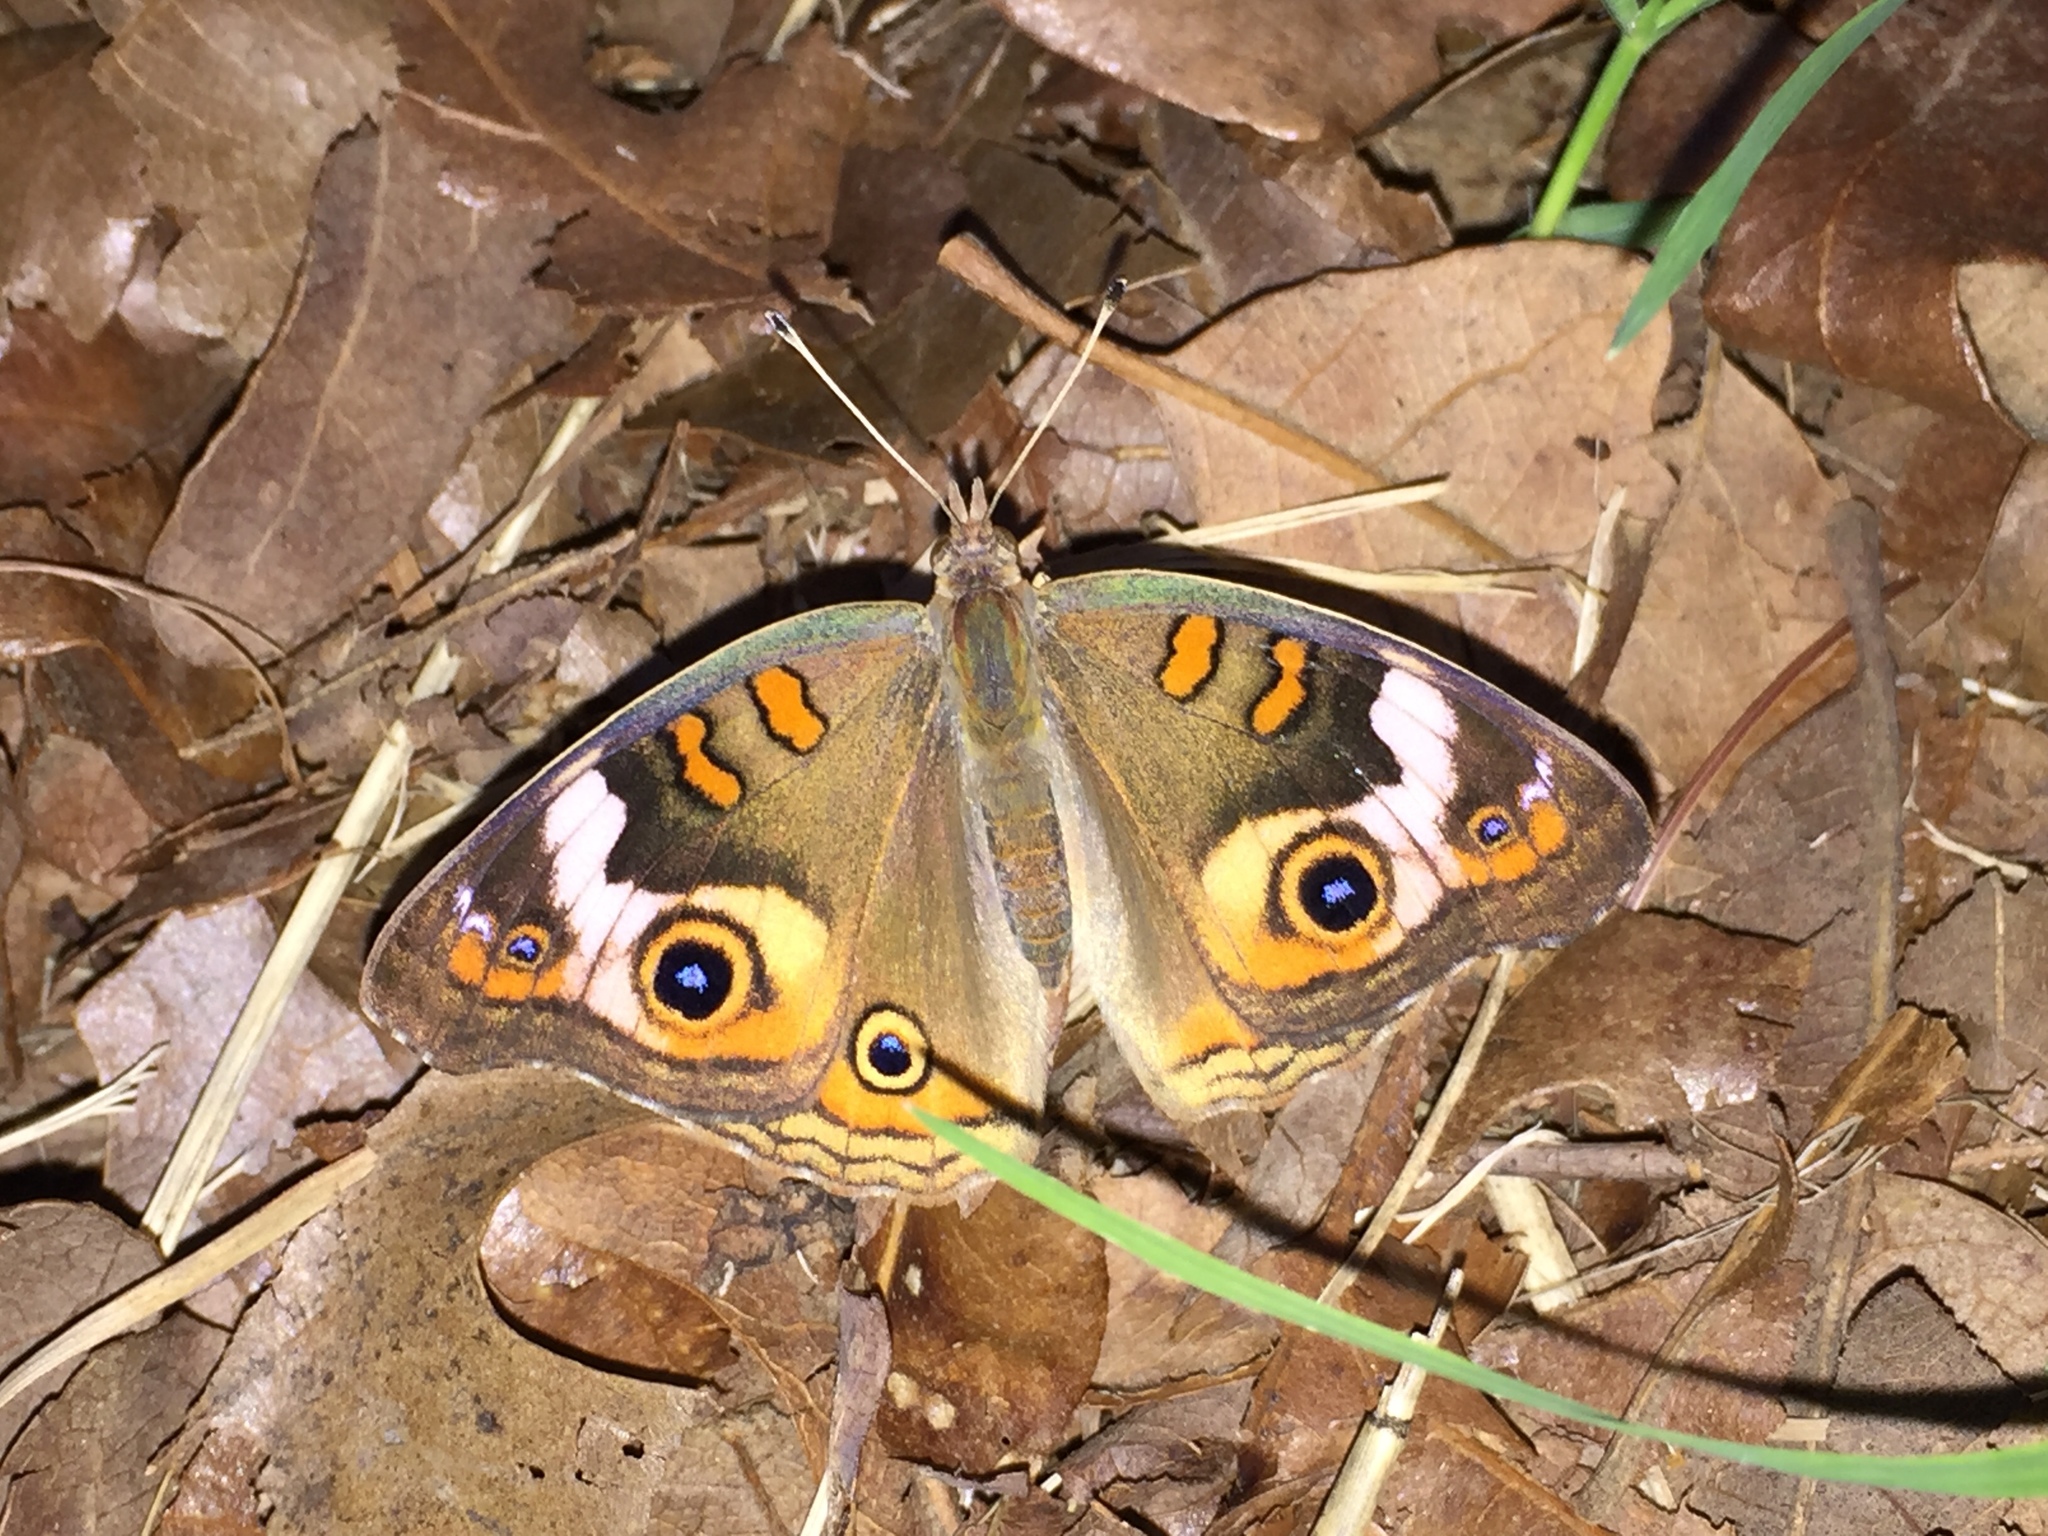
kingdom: Animalia
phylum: Arthropoda
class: Insecta
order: Lepidoptera
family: Nymphalidae
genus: Junonia
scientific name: Junonia coenia
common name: Common buckeye
